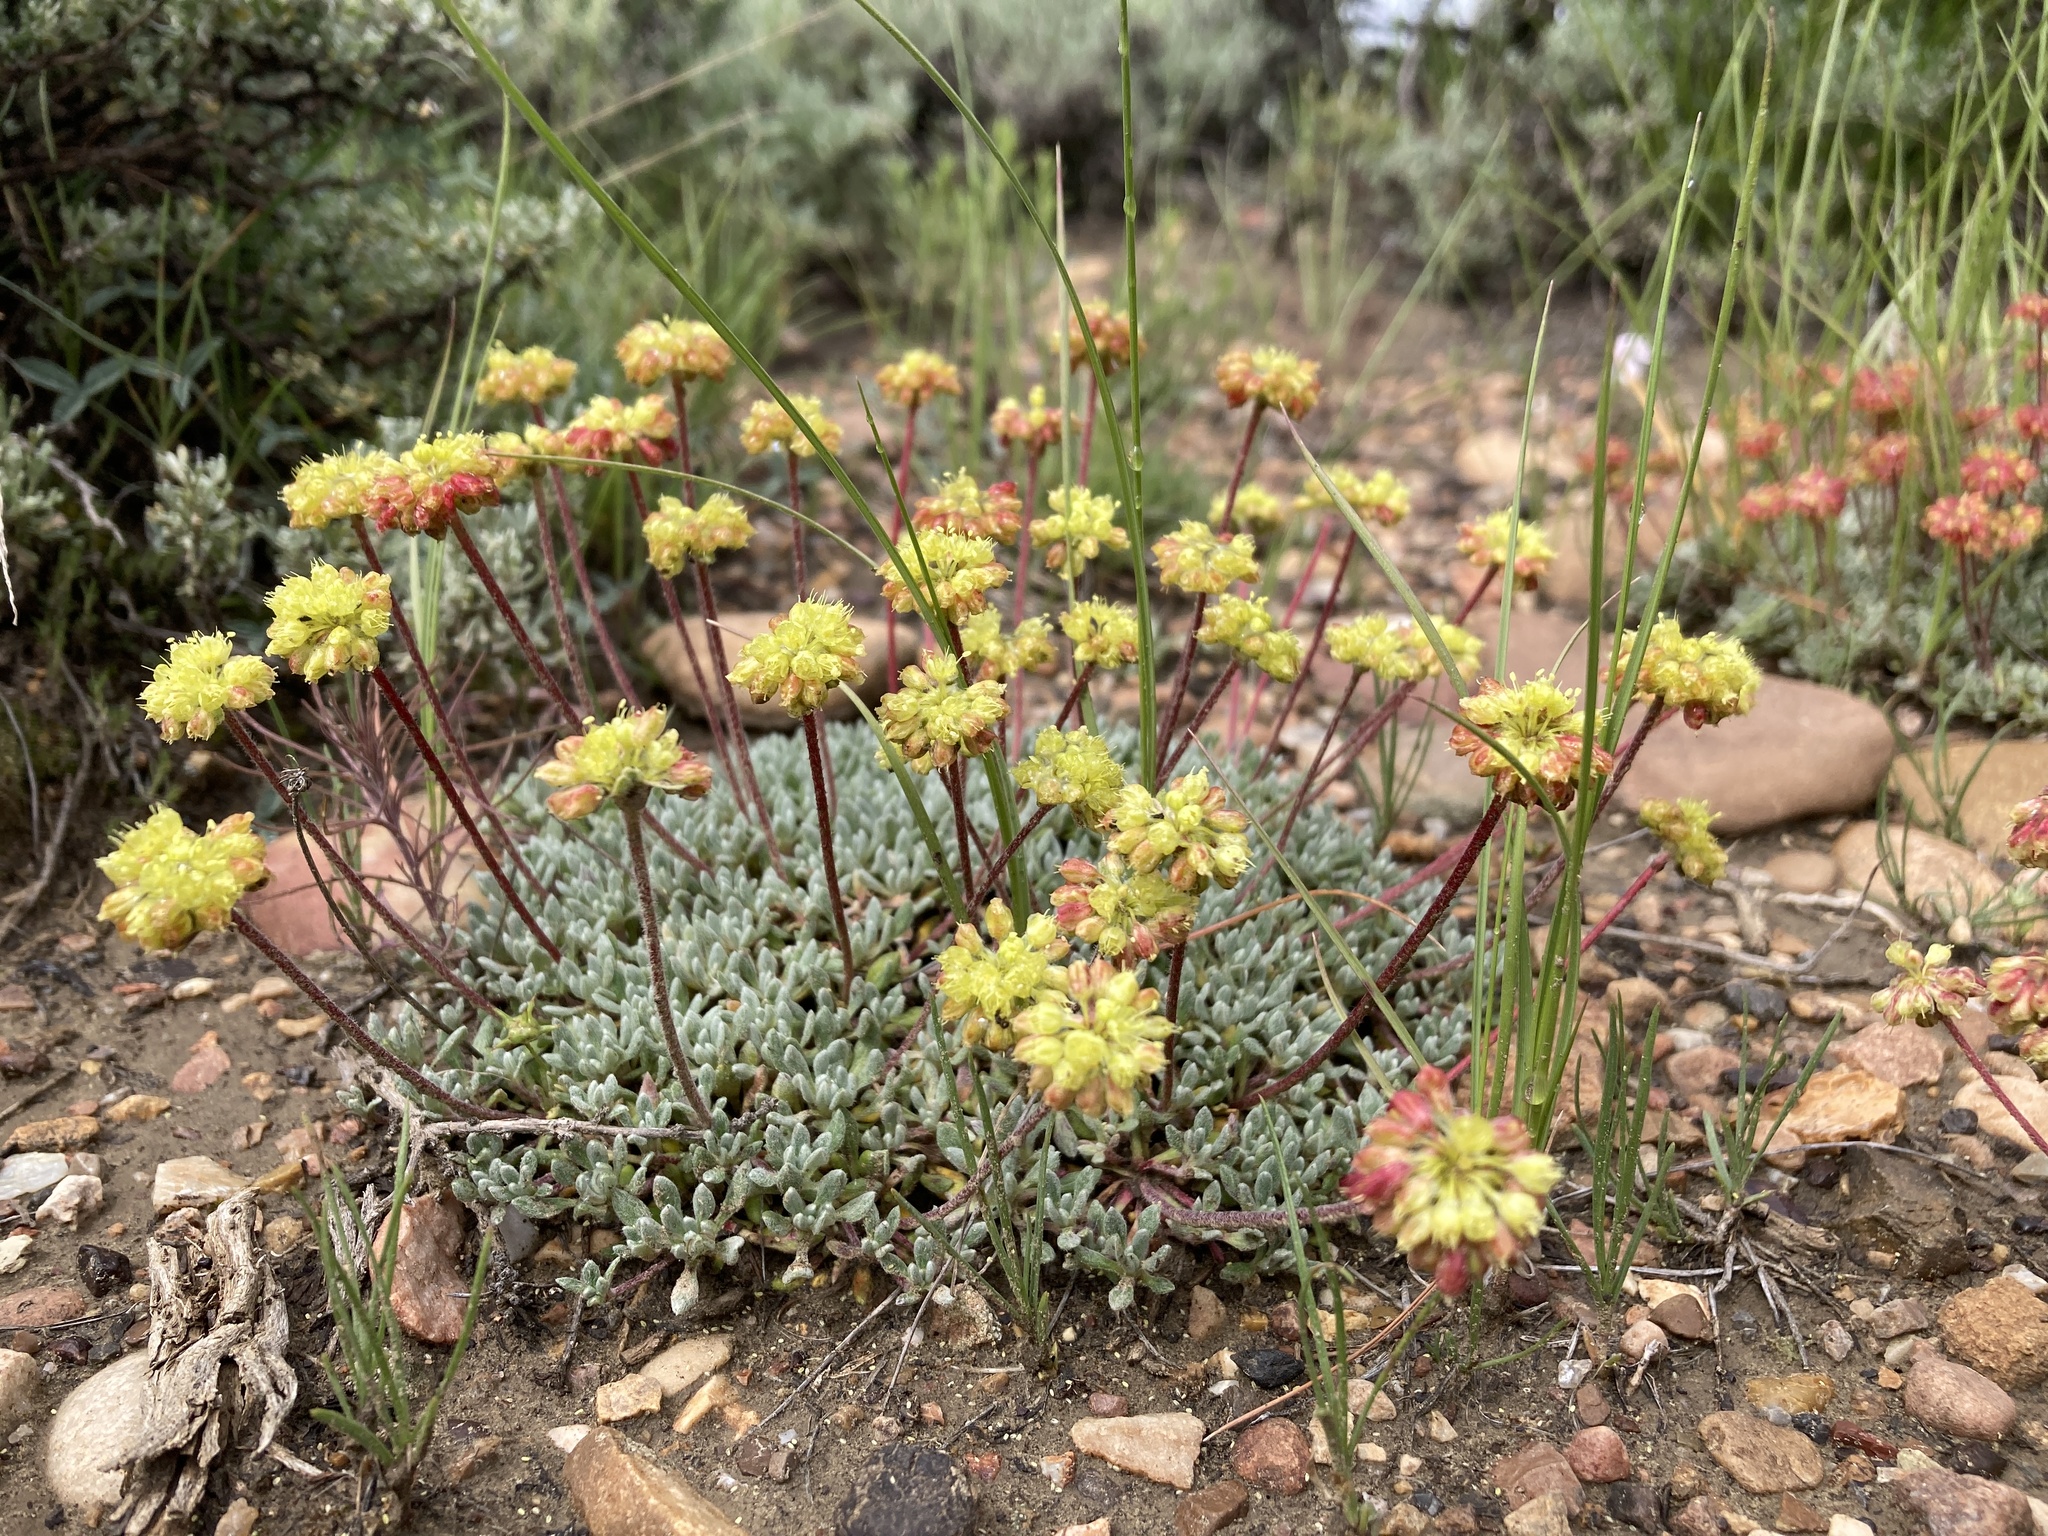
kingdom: Plantae
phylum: Tracheophyta
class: Magnoliopsida
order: Caryophyllales
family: Polygonaceae
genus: Eriogonum
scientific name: Eriogonum caespitosum
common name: Matted wild buckwheat
